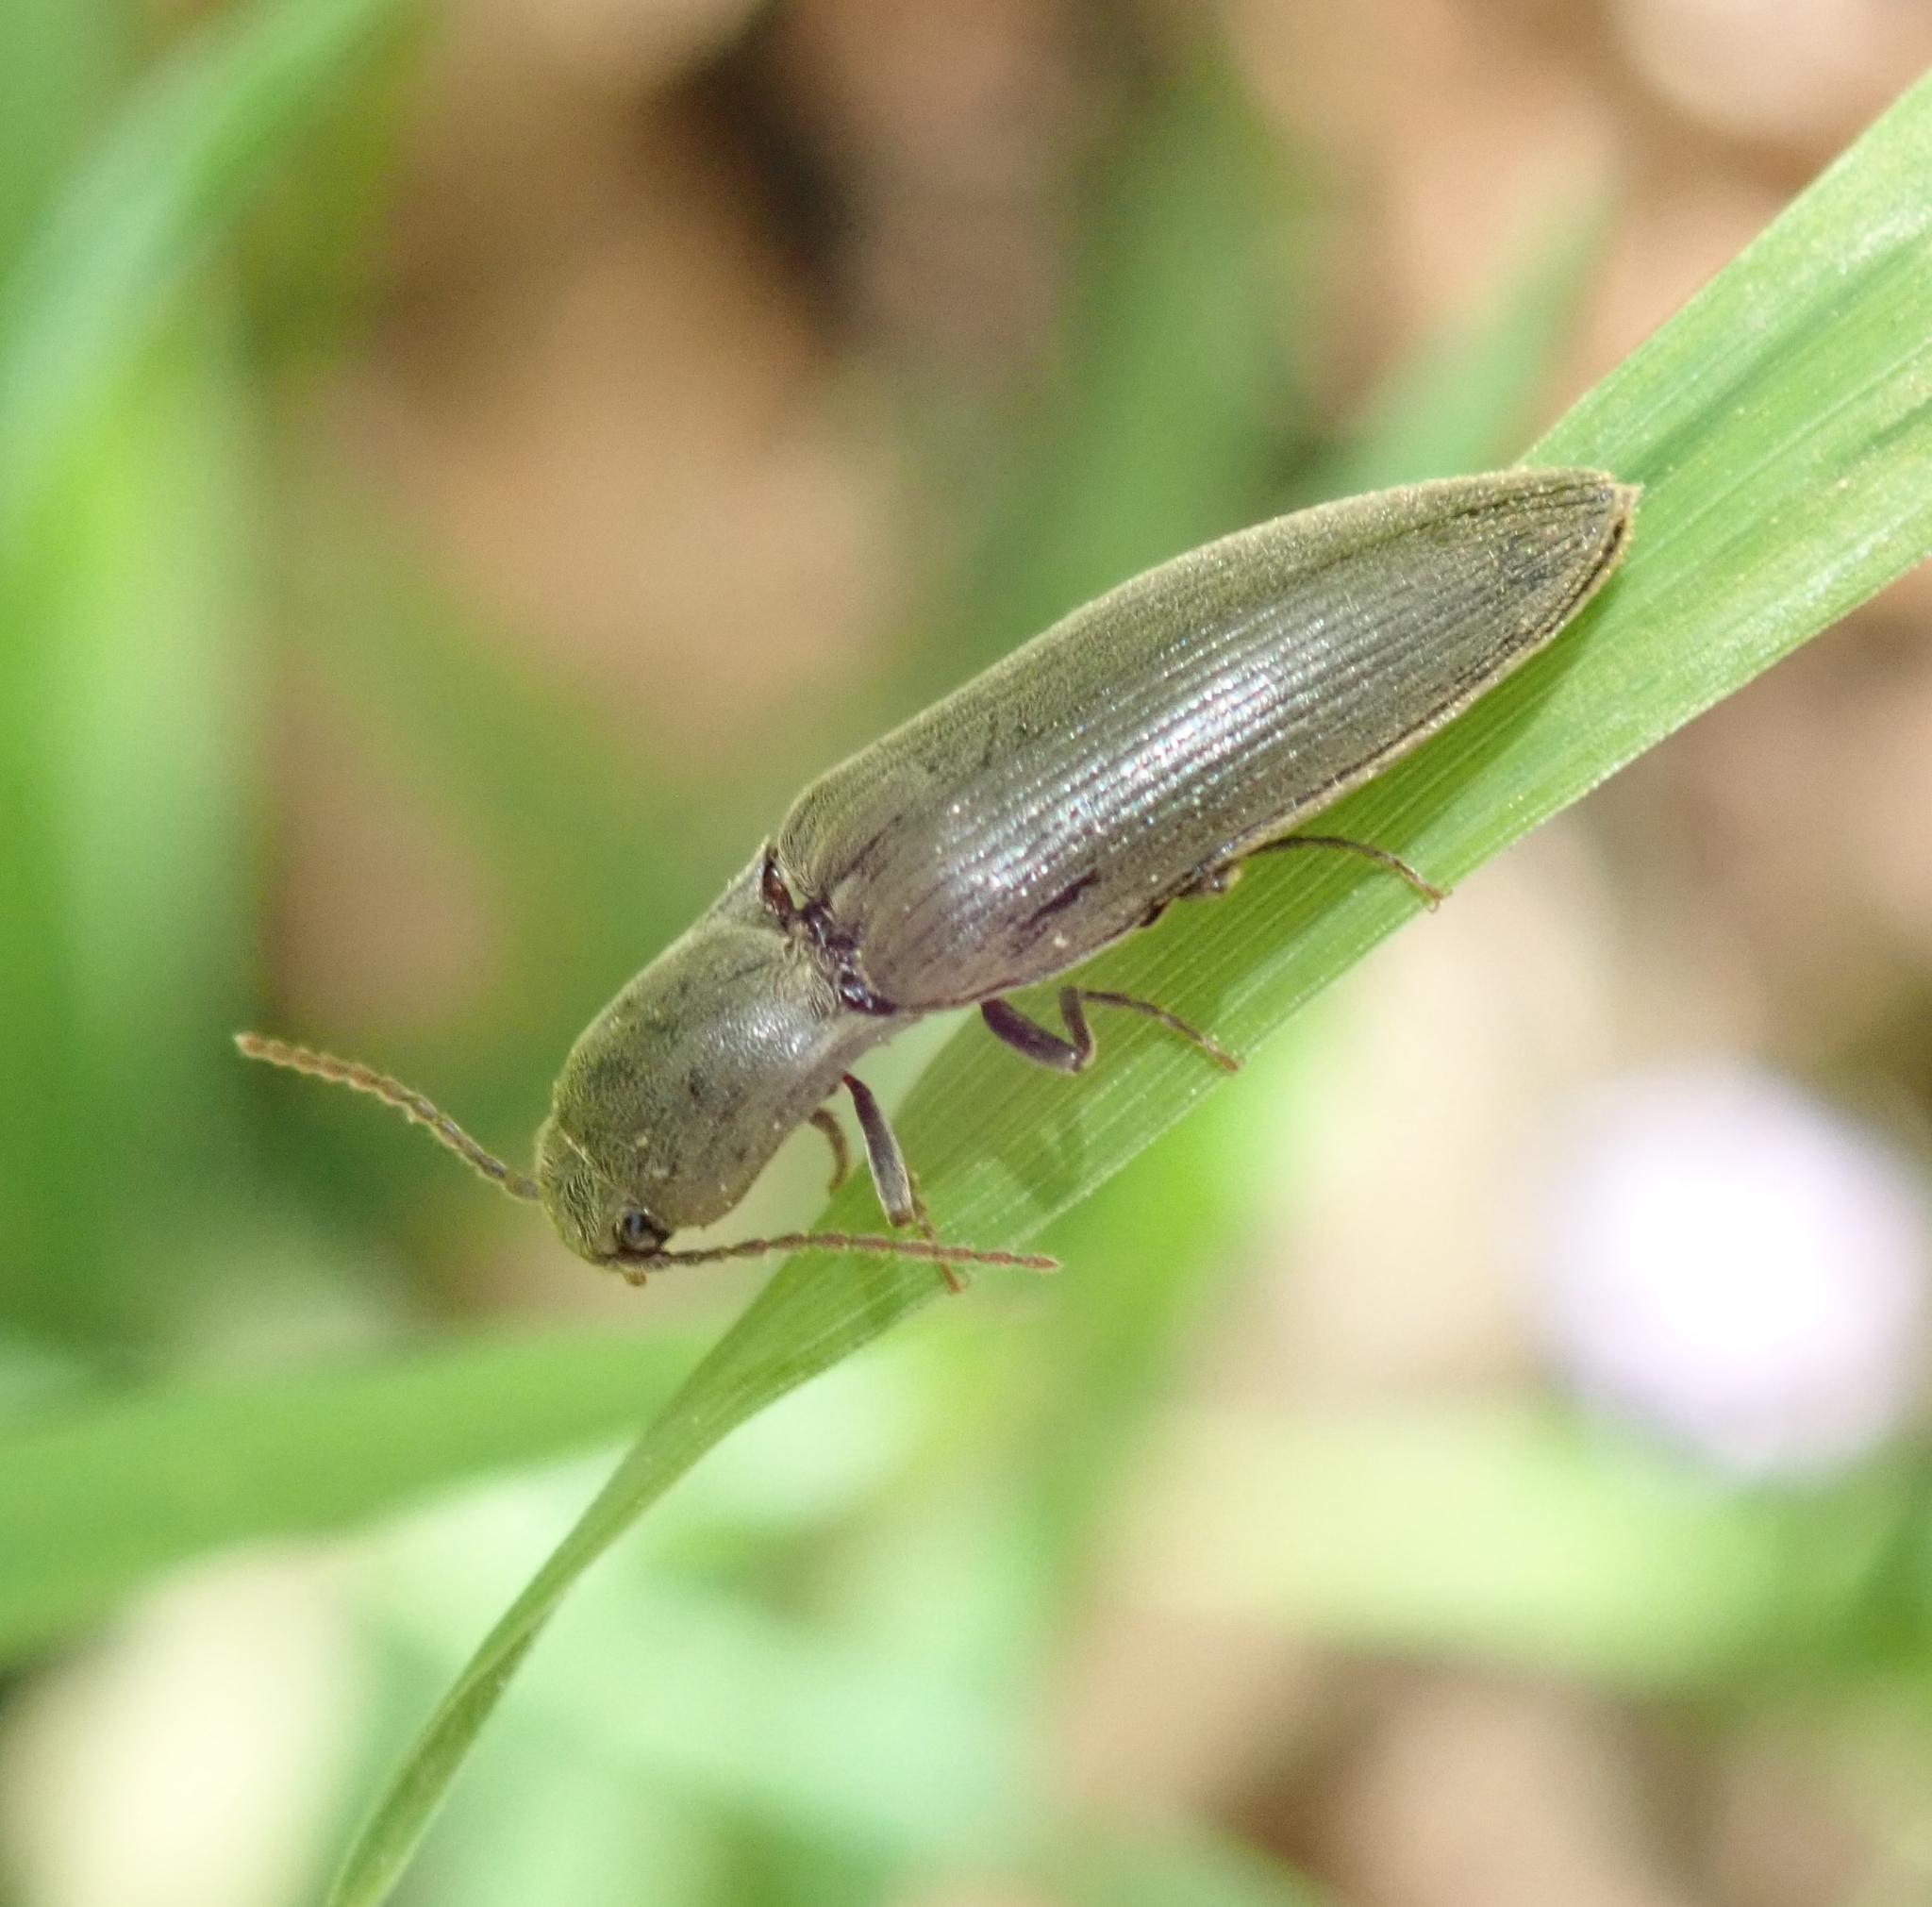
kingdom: Animalia
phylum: Arthropoda
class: Insecta
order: Coleoptera
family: Elateridae
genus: Agriotes
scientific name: Agriotes pilosellus
